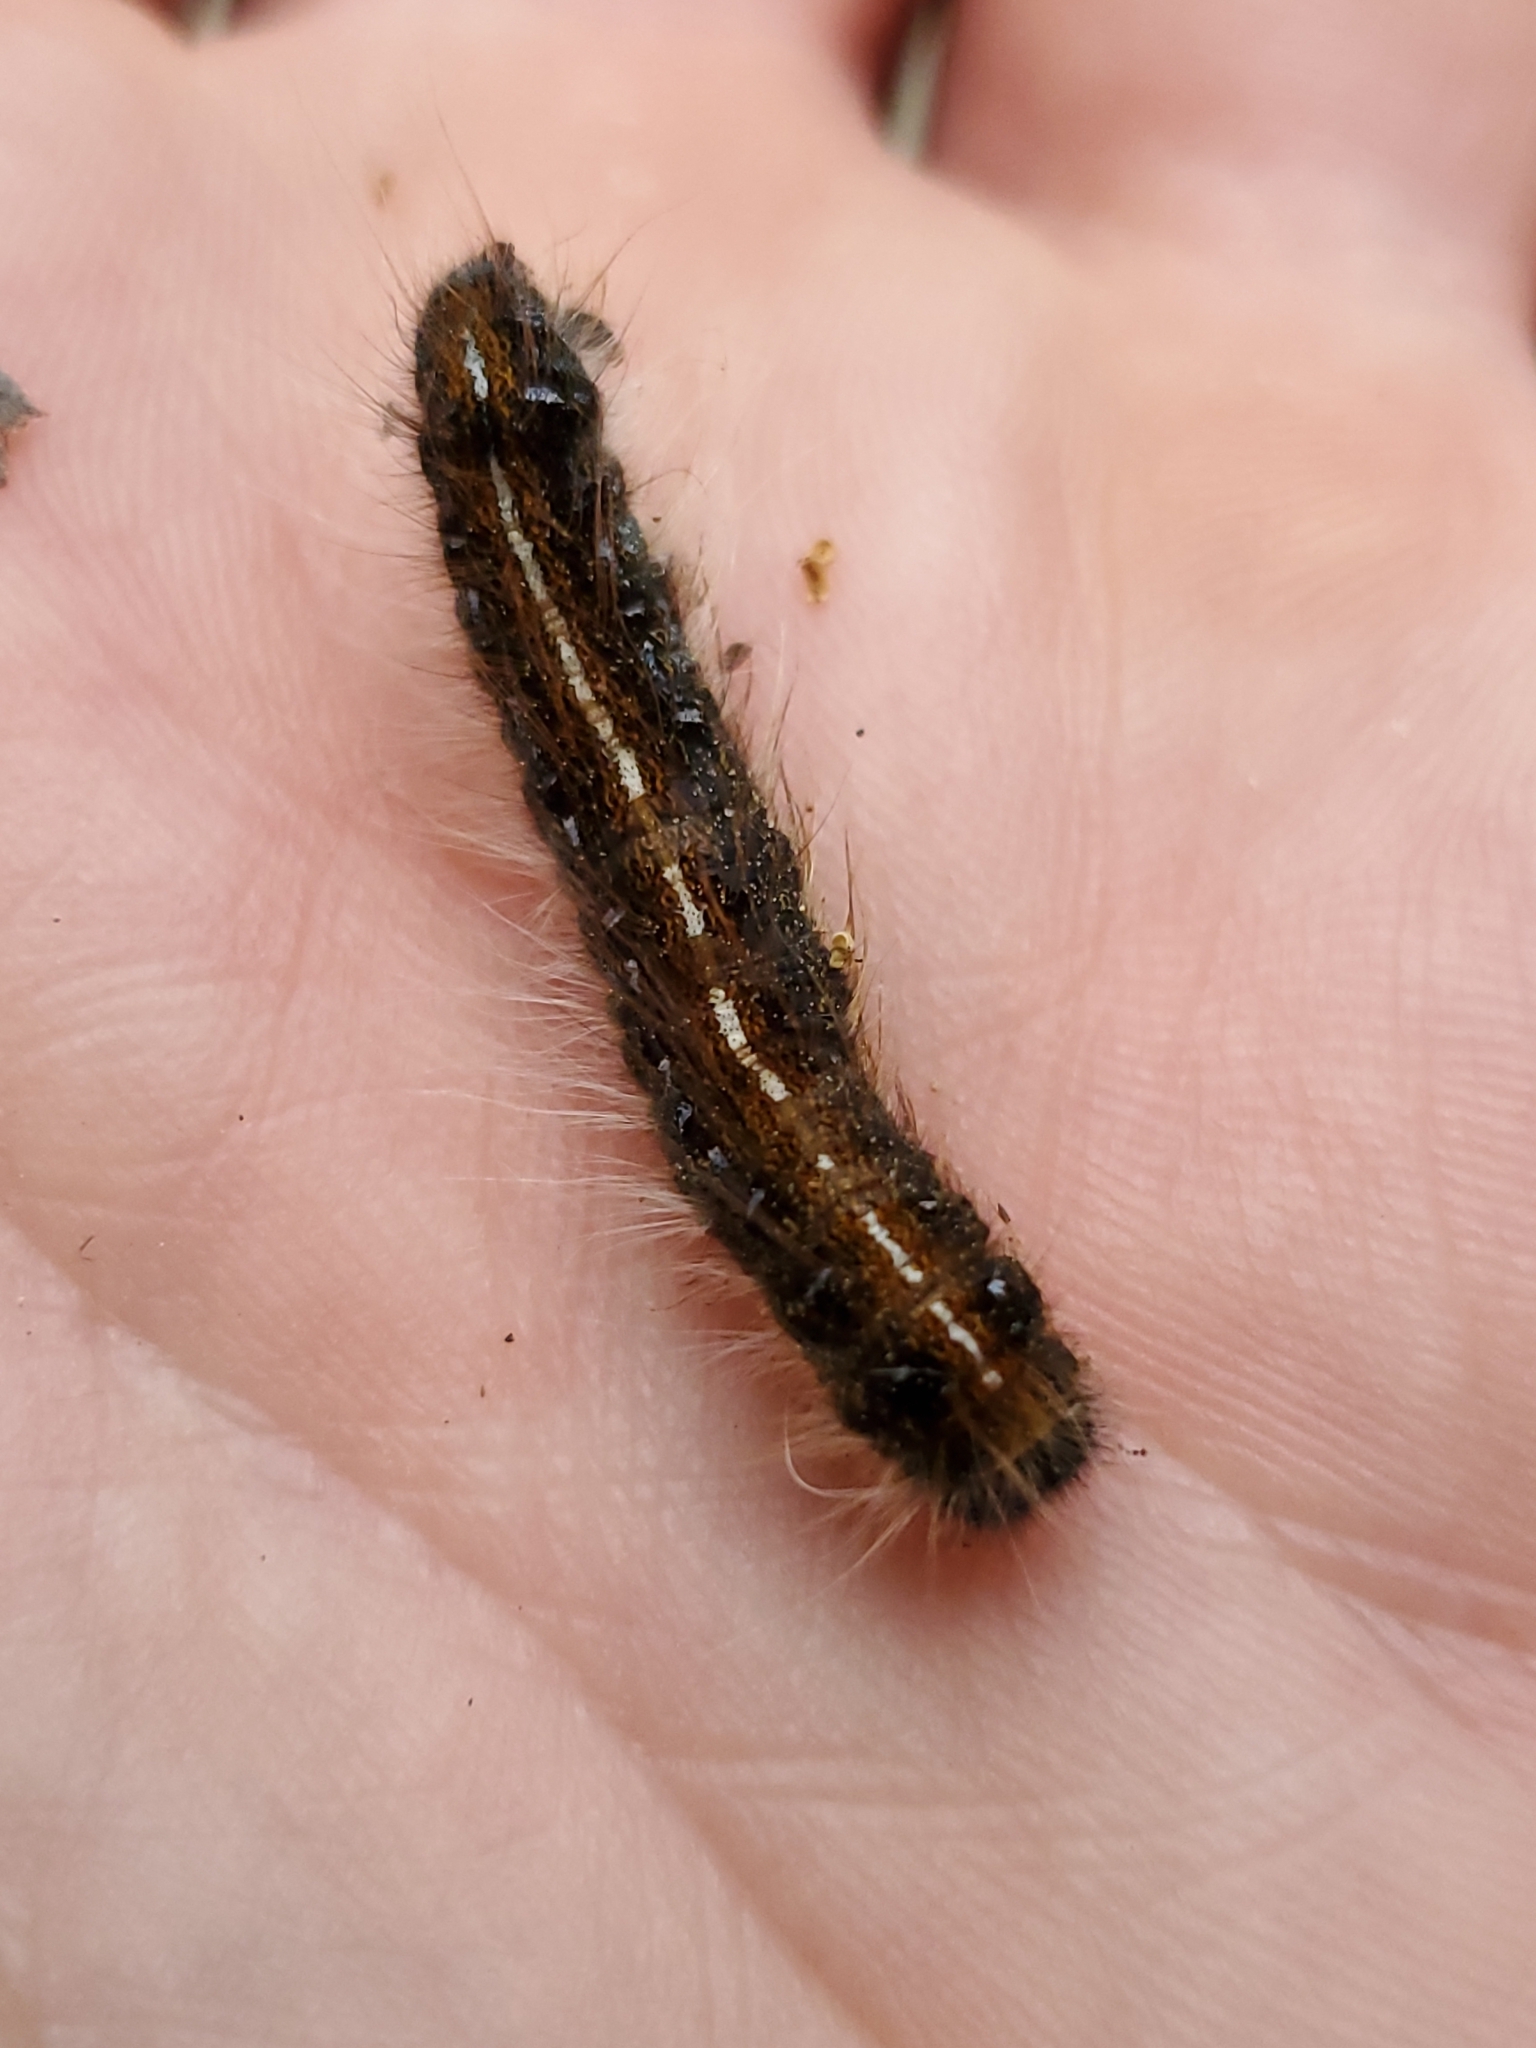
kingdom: Animalia
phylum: Arthropoda
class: Insecta
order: Lepidoptera
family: Lasiocampidae
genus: Malacosoma
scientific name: Malacosoma americana
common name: Eastern tent caterpillar moth
